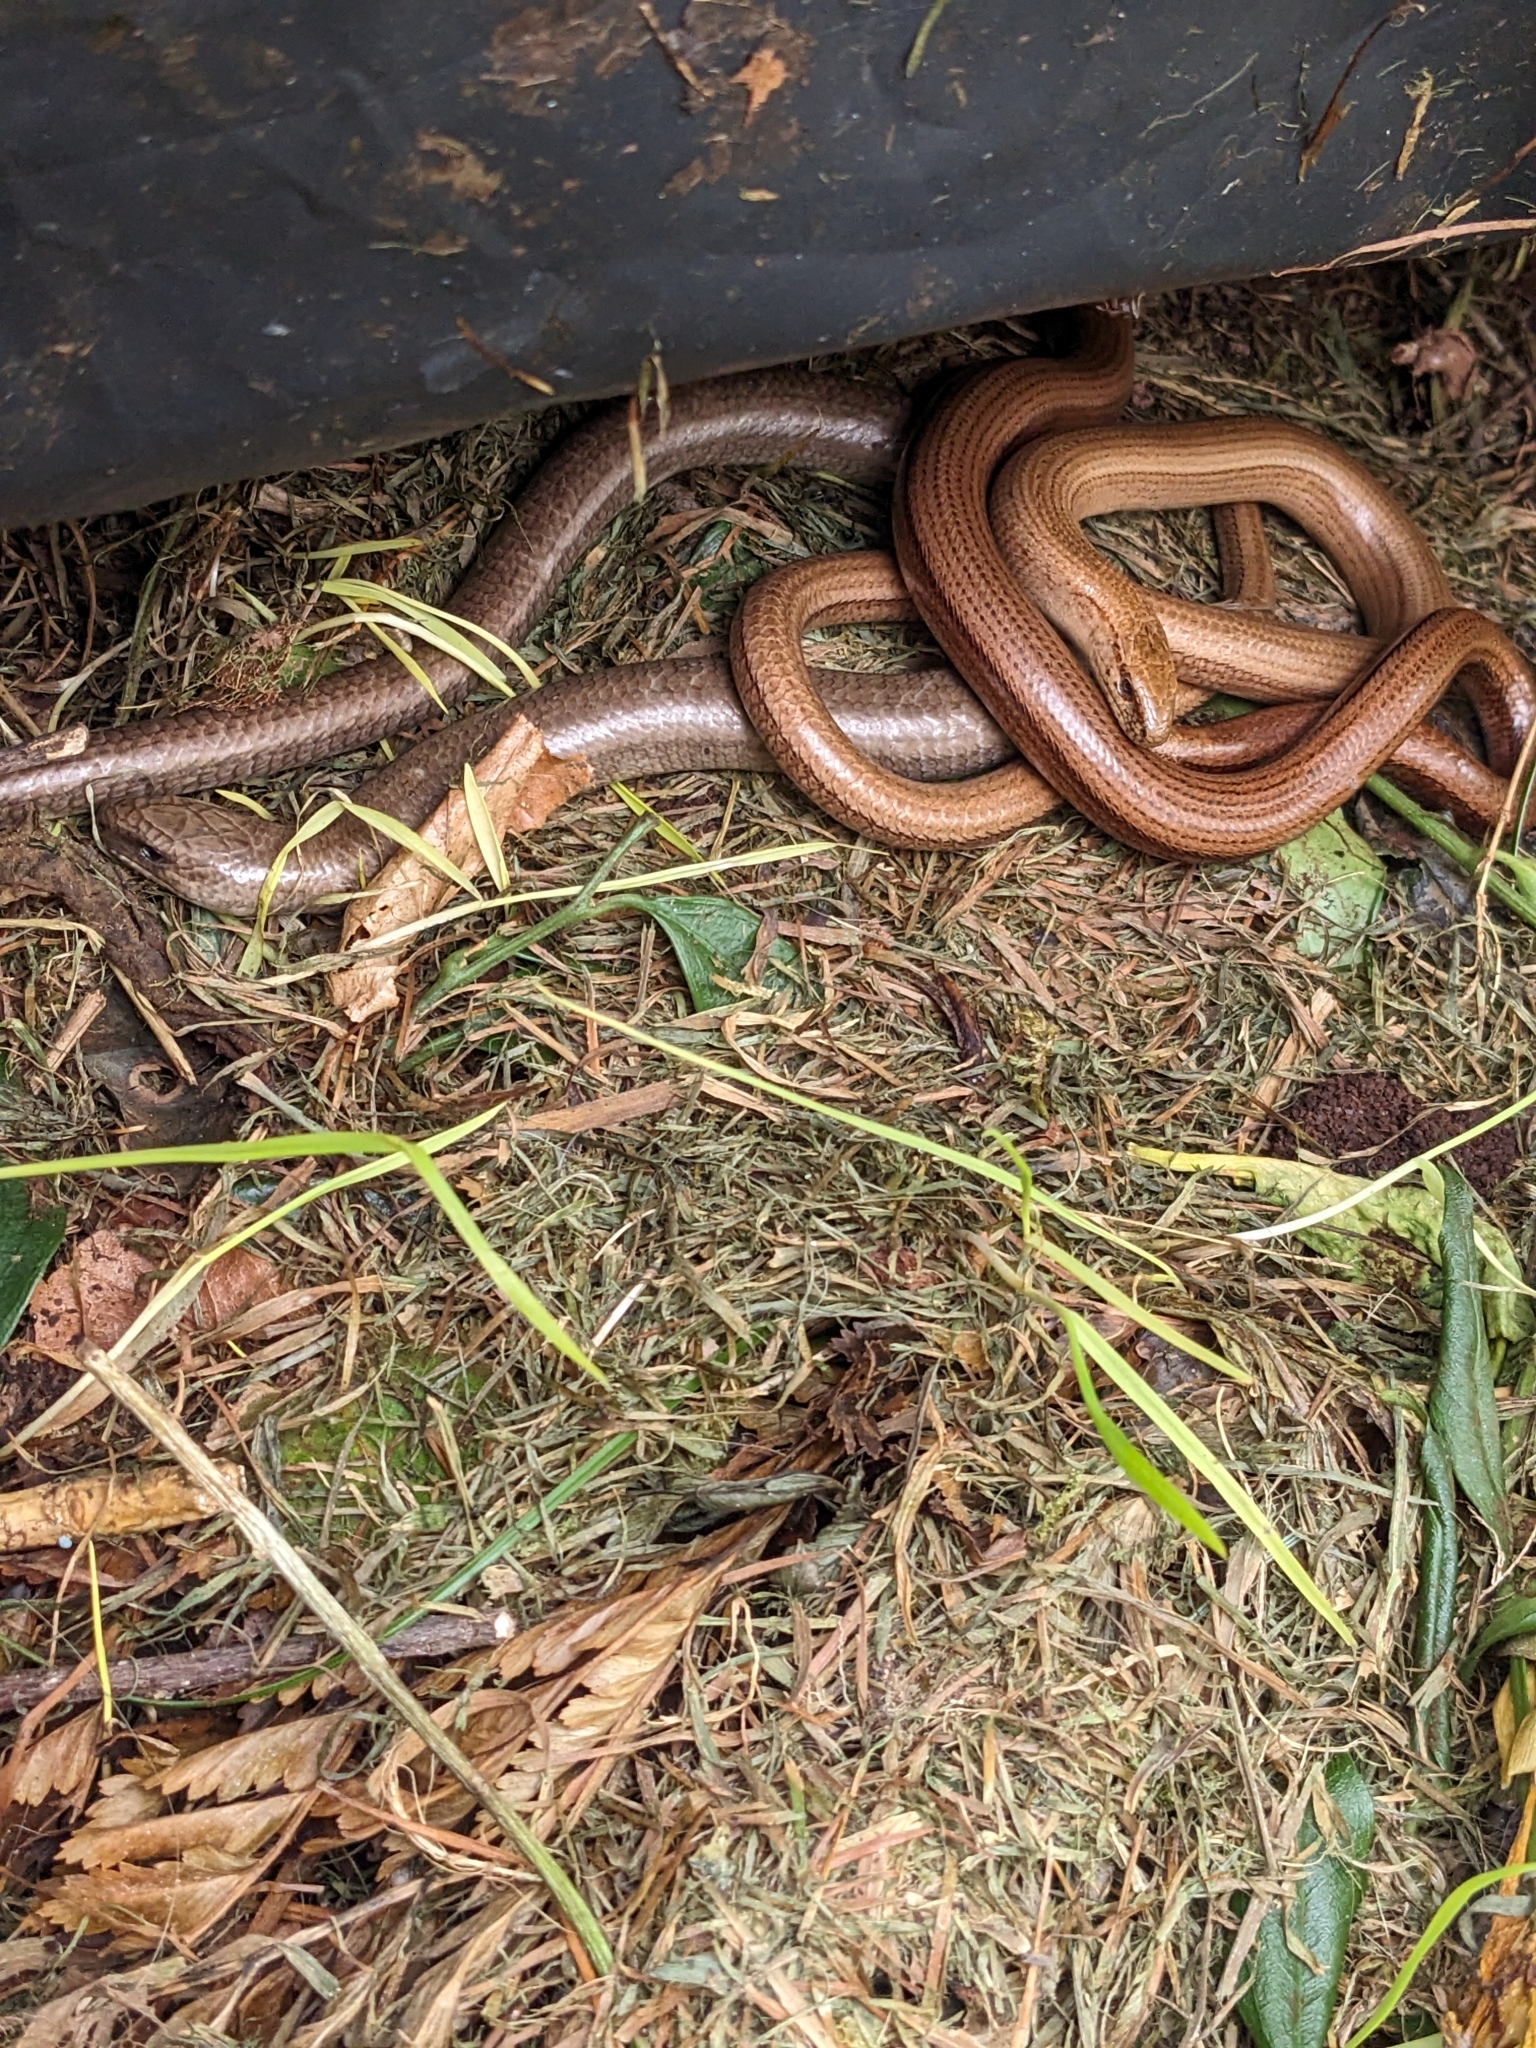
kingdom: Animalia
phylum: Chordata
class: Squamata
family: Anguidae
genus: Anguis
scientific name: Anguis fragilis
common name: Slow worm
